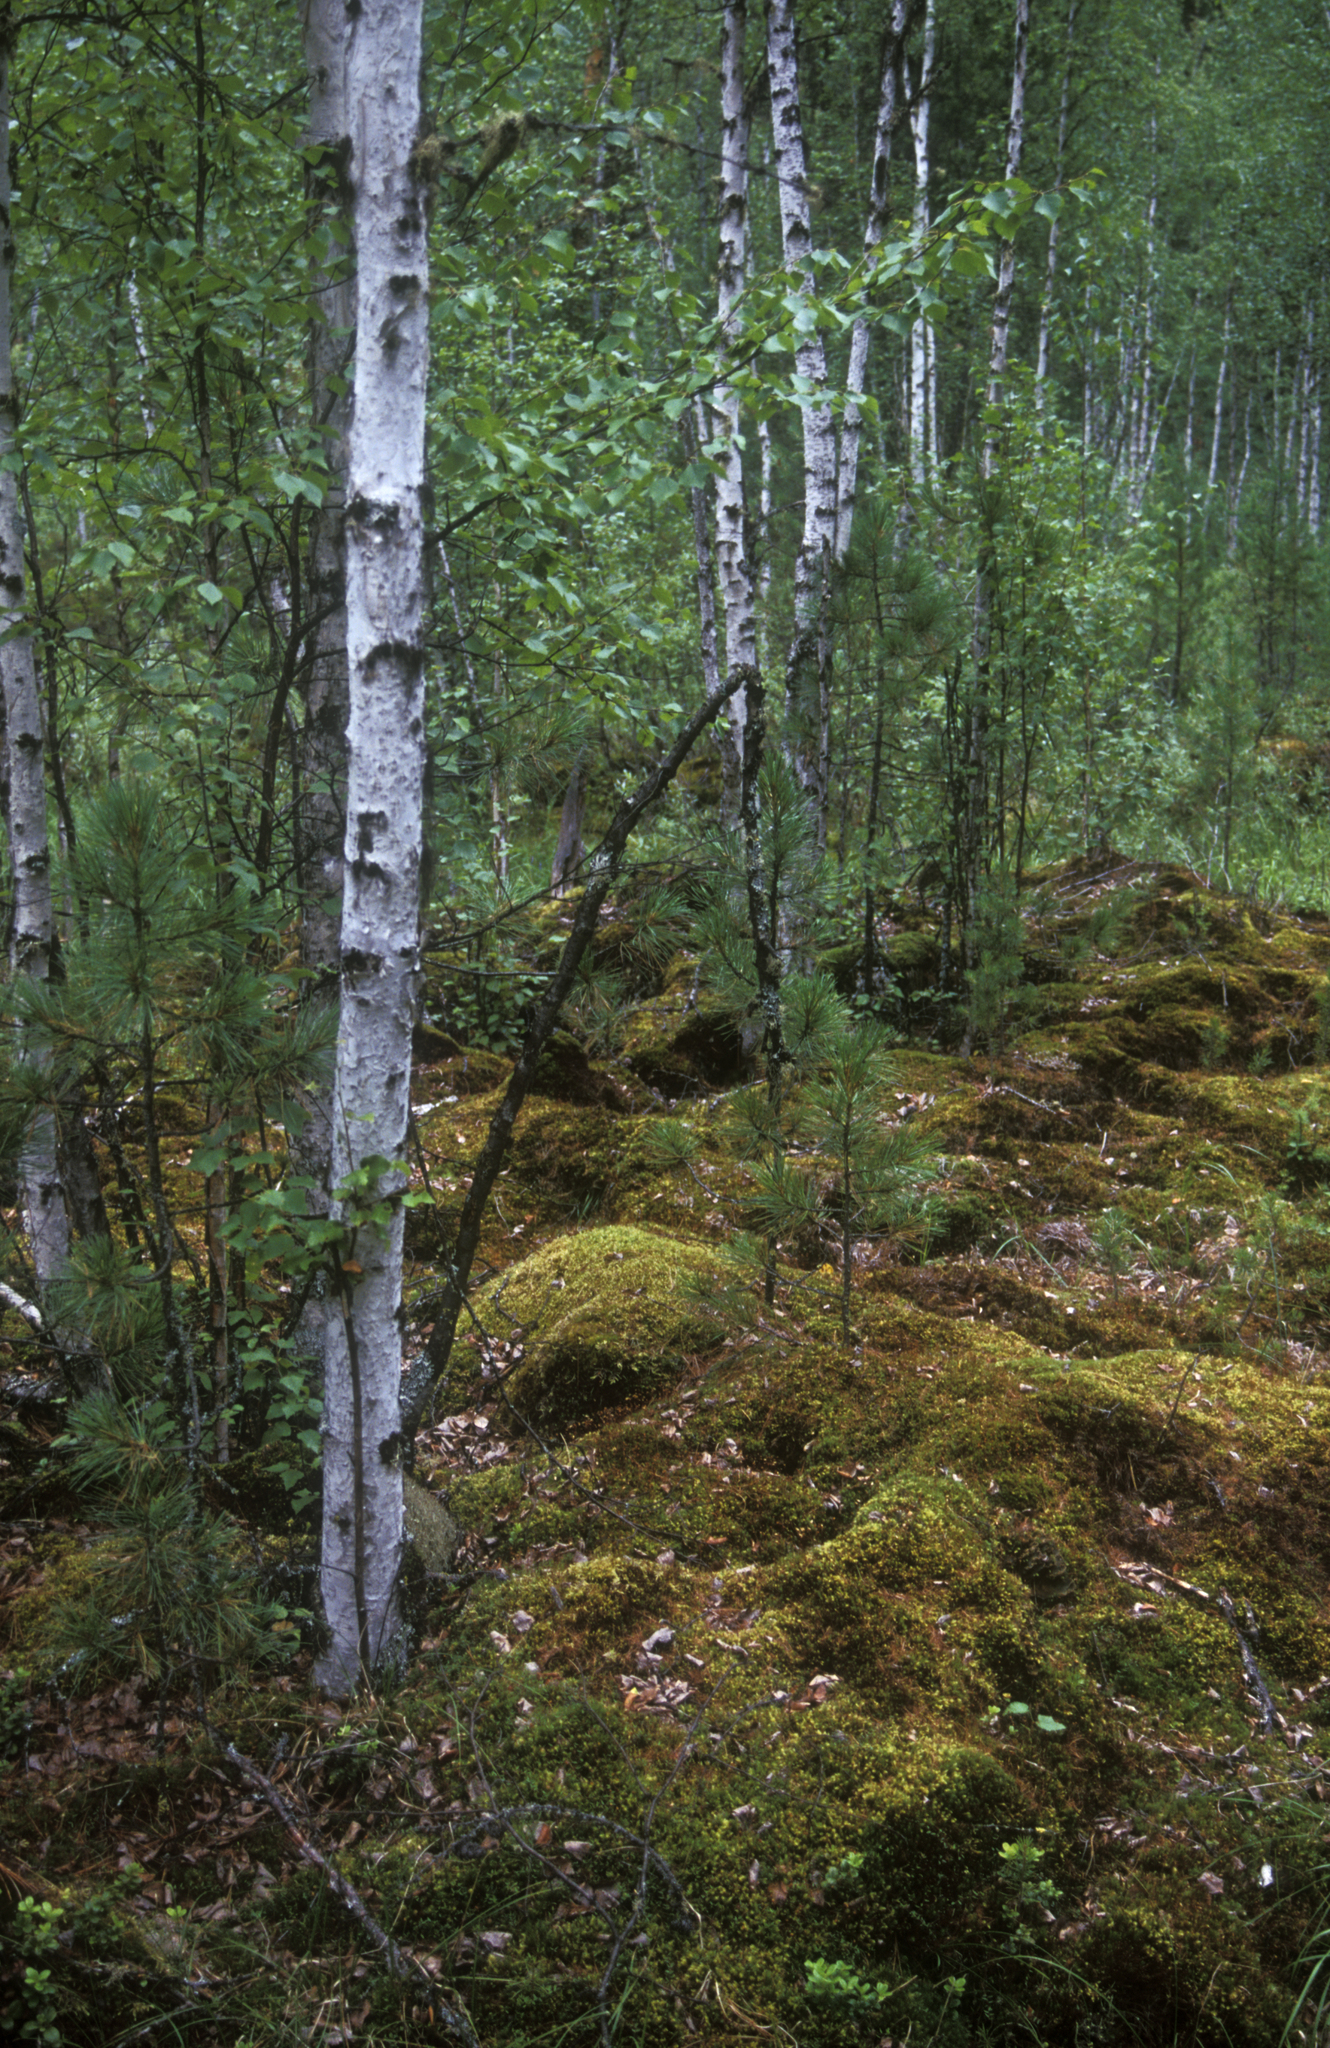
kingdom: Plantae
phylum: Tracheophyta
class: Magnoliopsida
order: Fagales
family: Betulaceae
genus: Betula
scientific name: Betula
